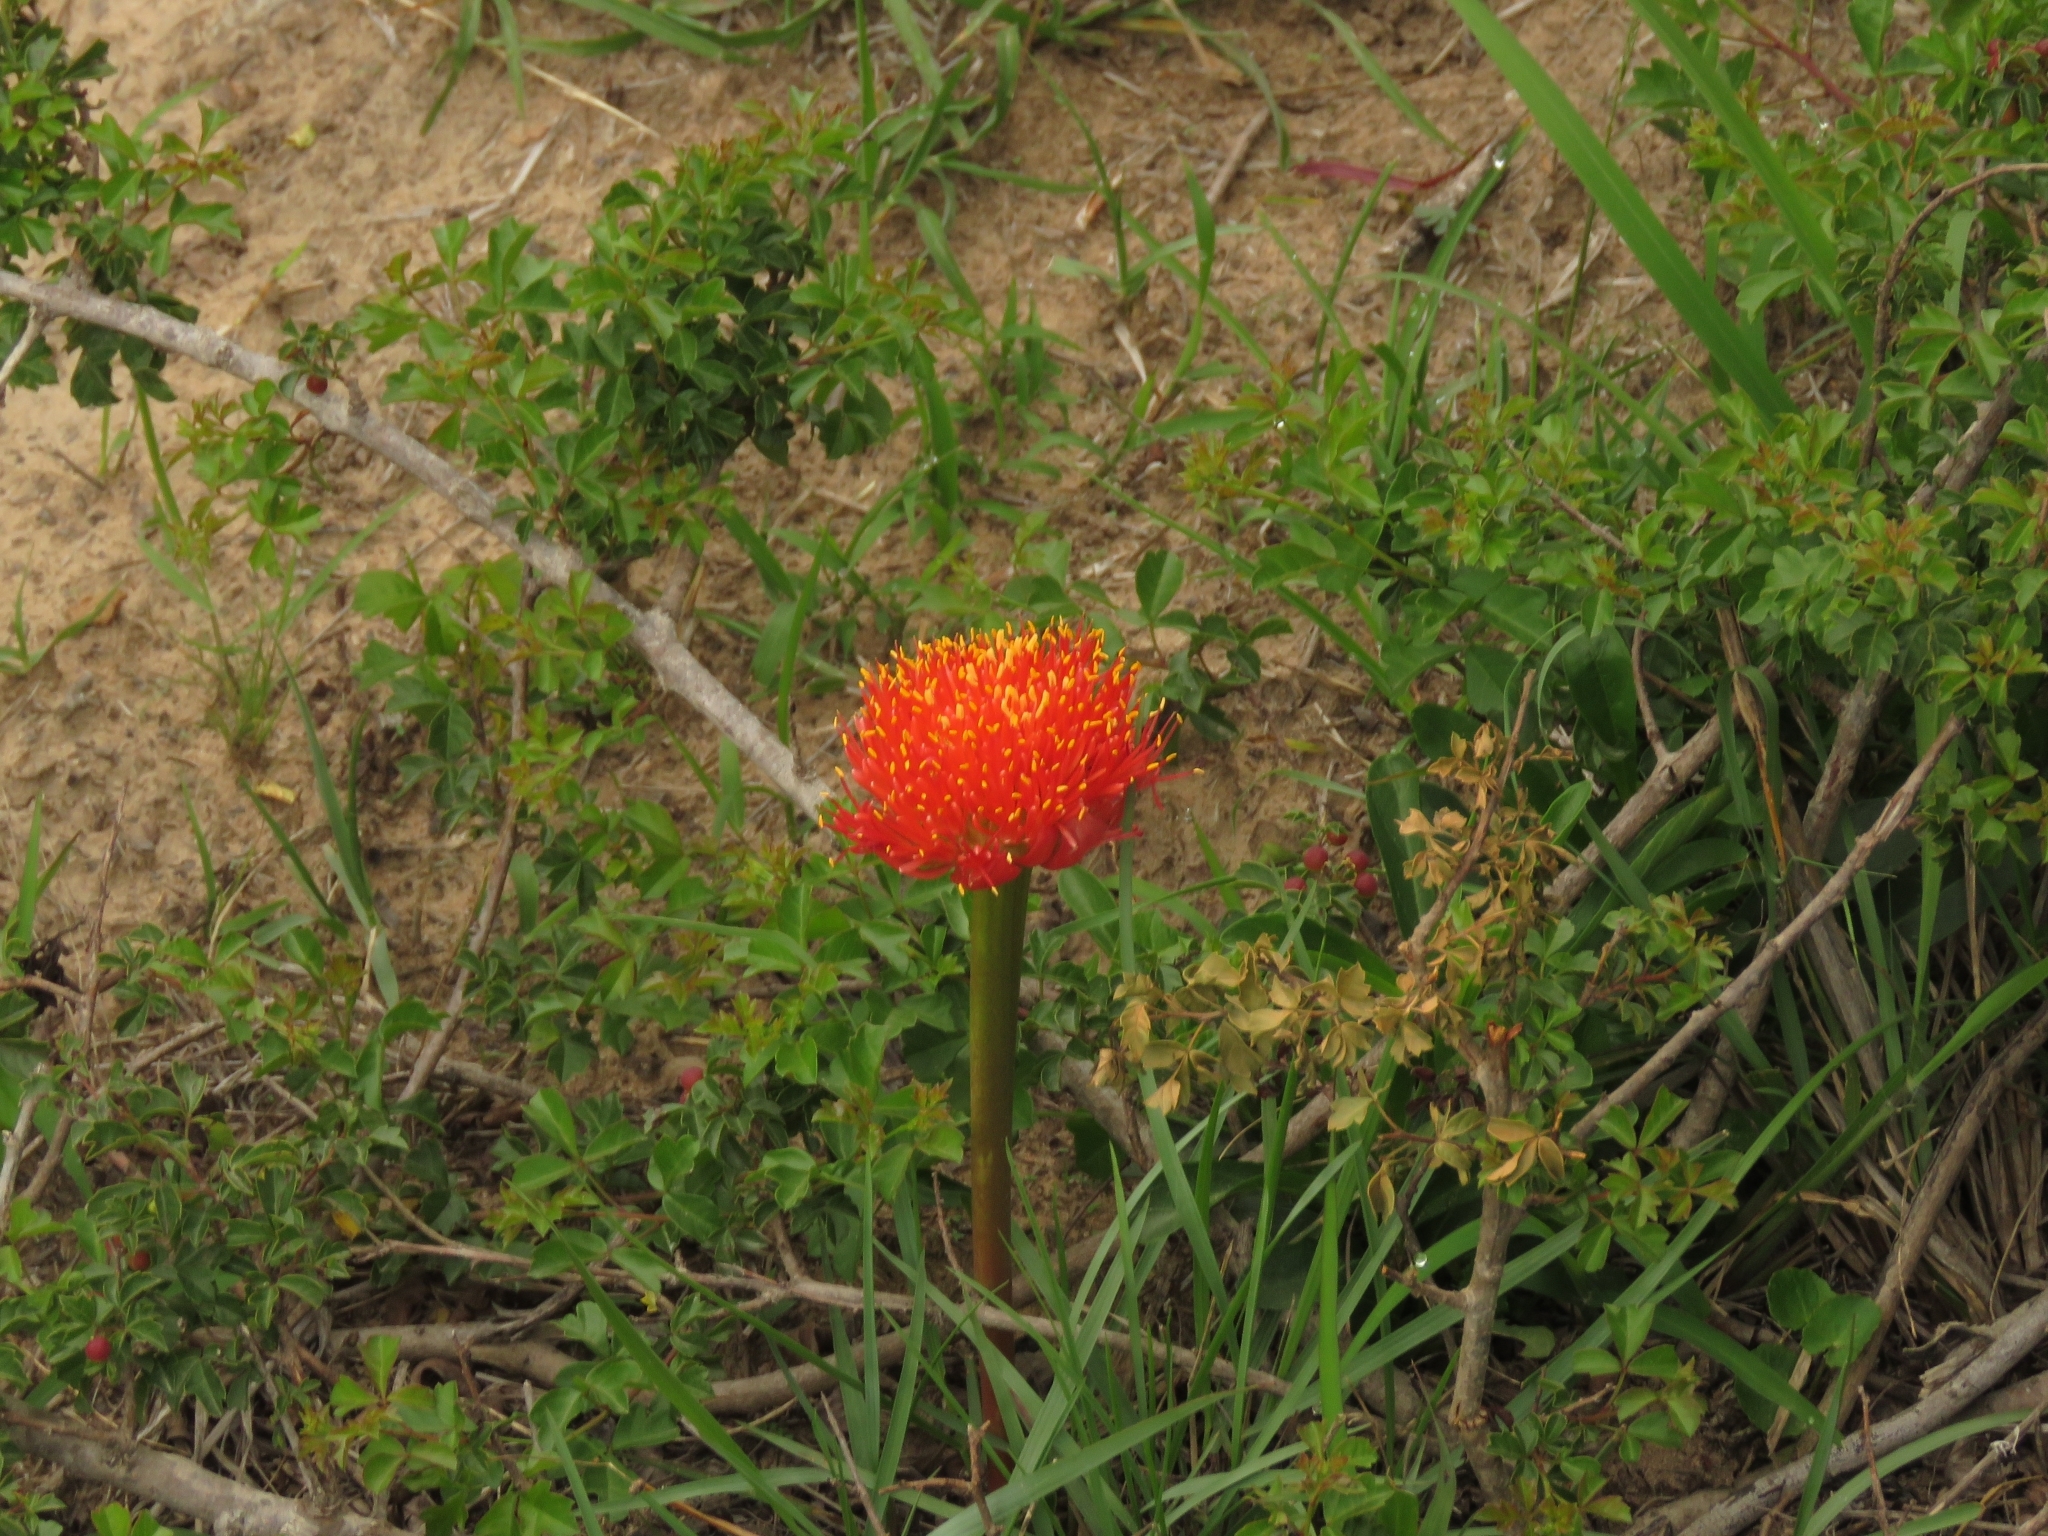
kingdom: Plantae
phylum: Tracheophyta
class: Liliopsida
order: Asparagales
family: Amaryllidaceae
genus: Haemanthus
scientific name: Haemanthus coccineus
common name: Cape-tulip
